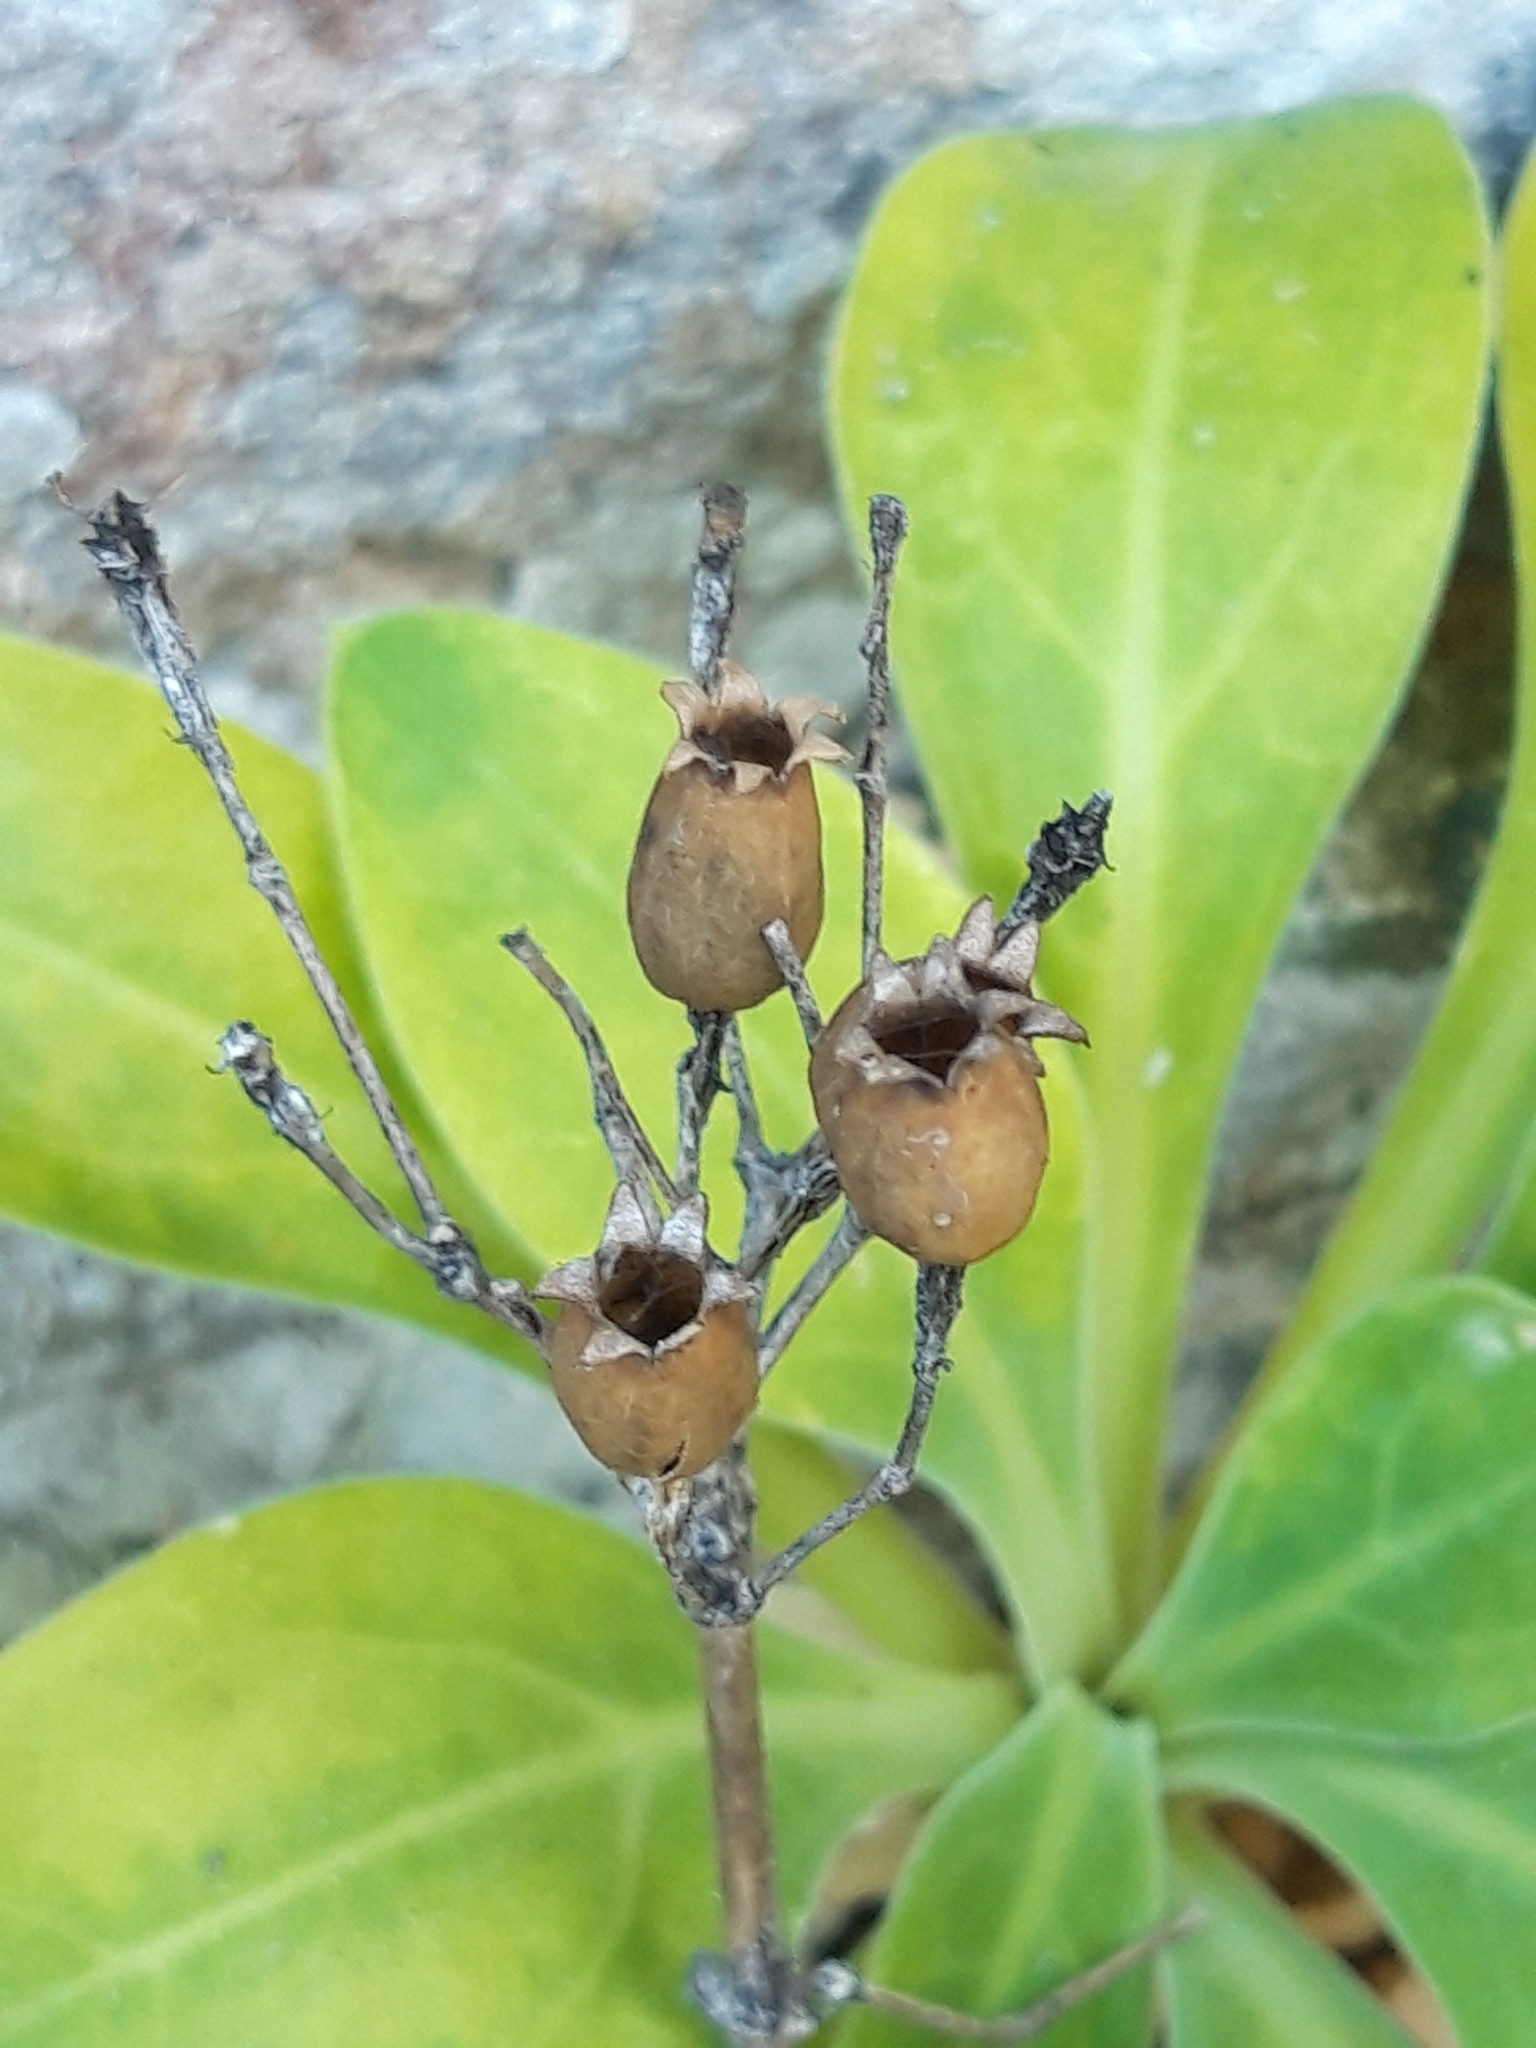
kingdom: Plantae
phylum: Tracheophyta
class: Magnoliopsida
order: Caryophyllales
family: Caryophyllaceae
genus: Silene
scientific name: Silene hifacensis
